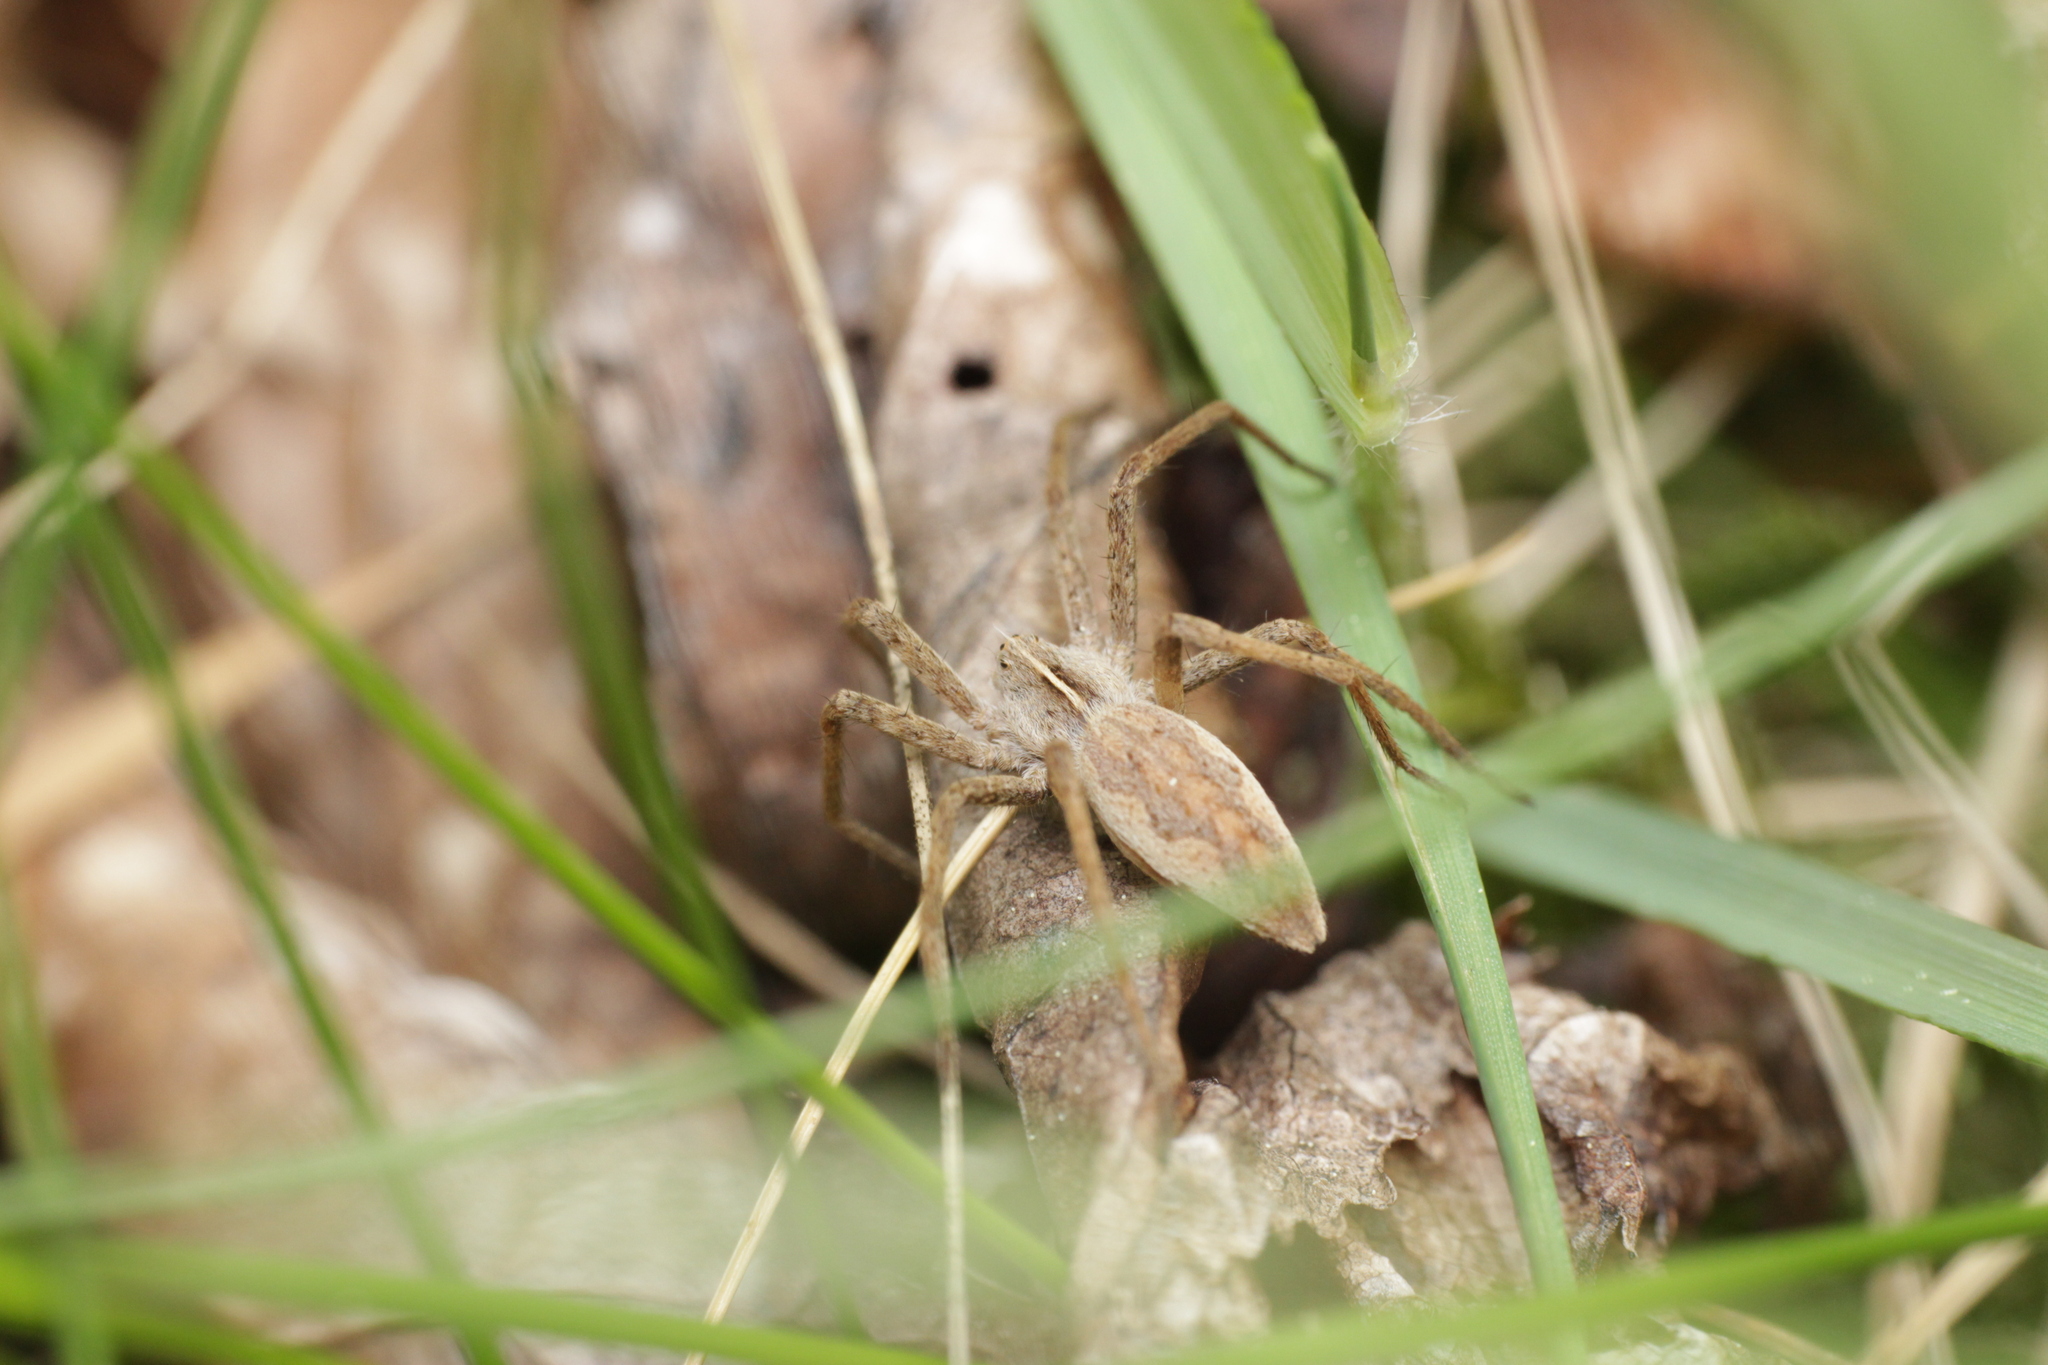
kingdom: Animalia
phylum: Arthropoda
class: Arachnida
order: Araneae
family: Pisauridae
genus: Pisaura
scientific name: Pisaura mirabilis
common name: Tent spider
